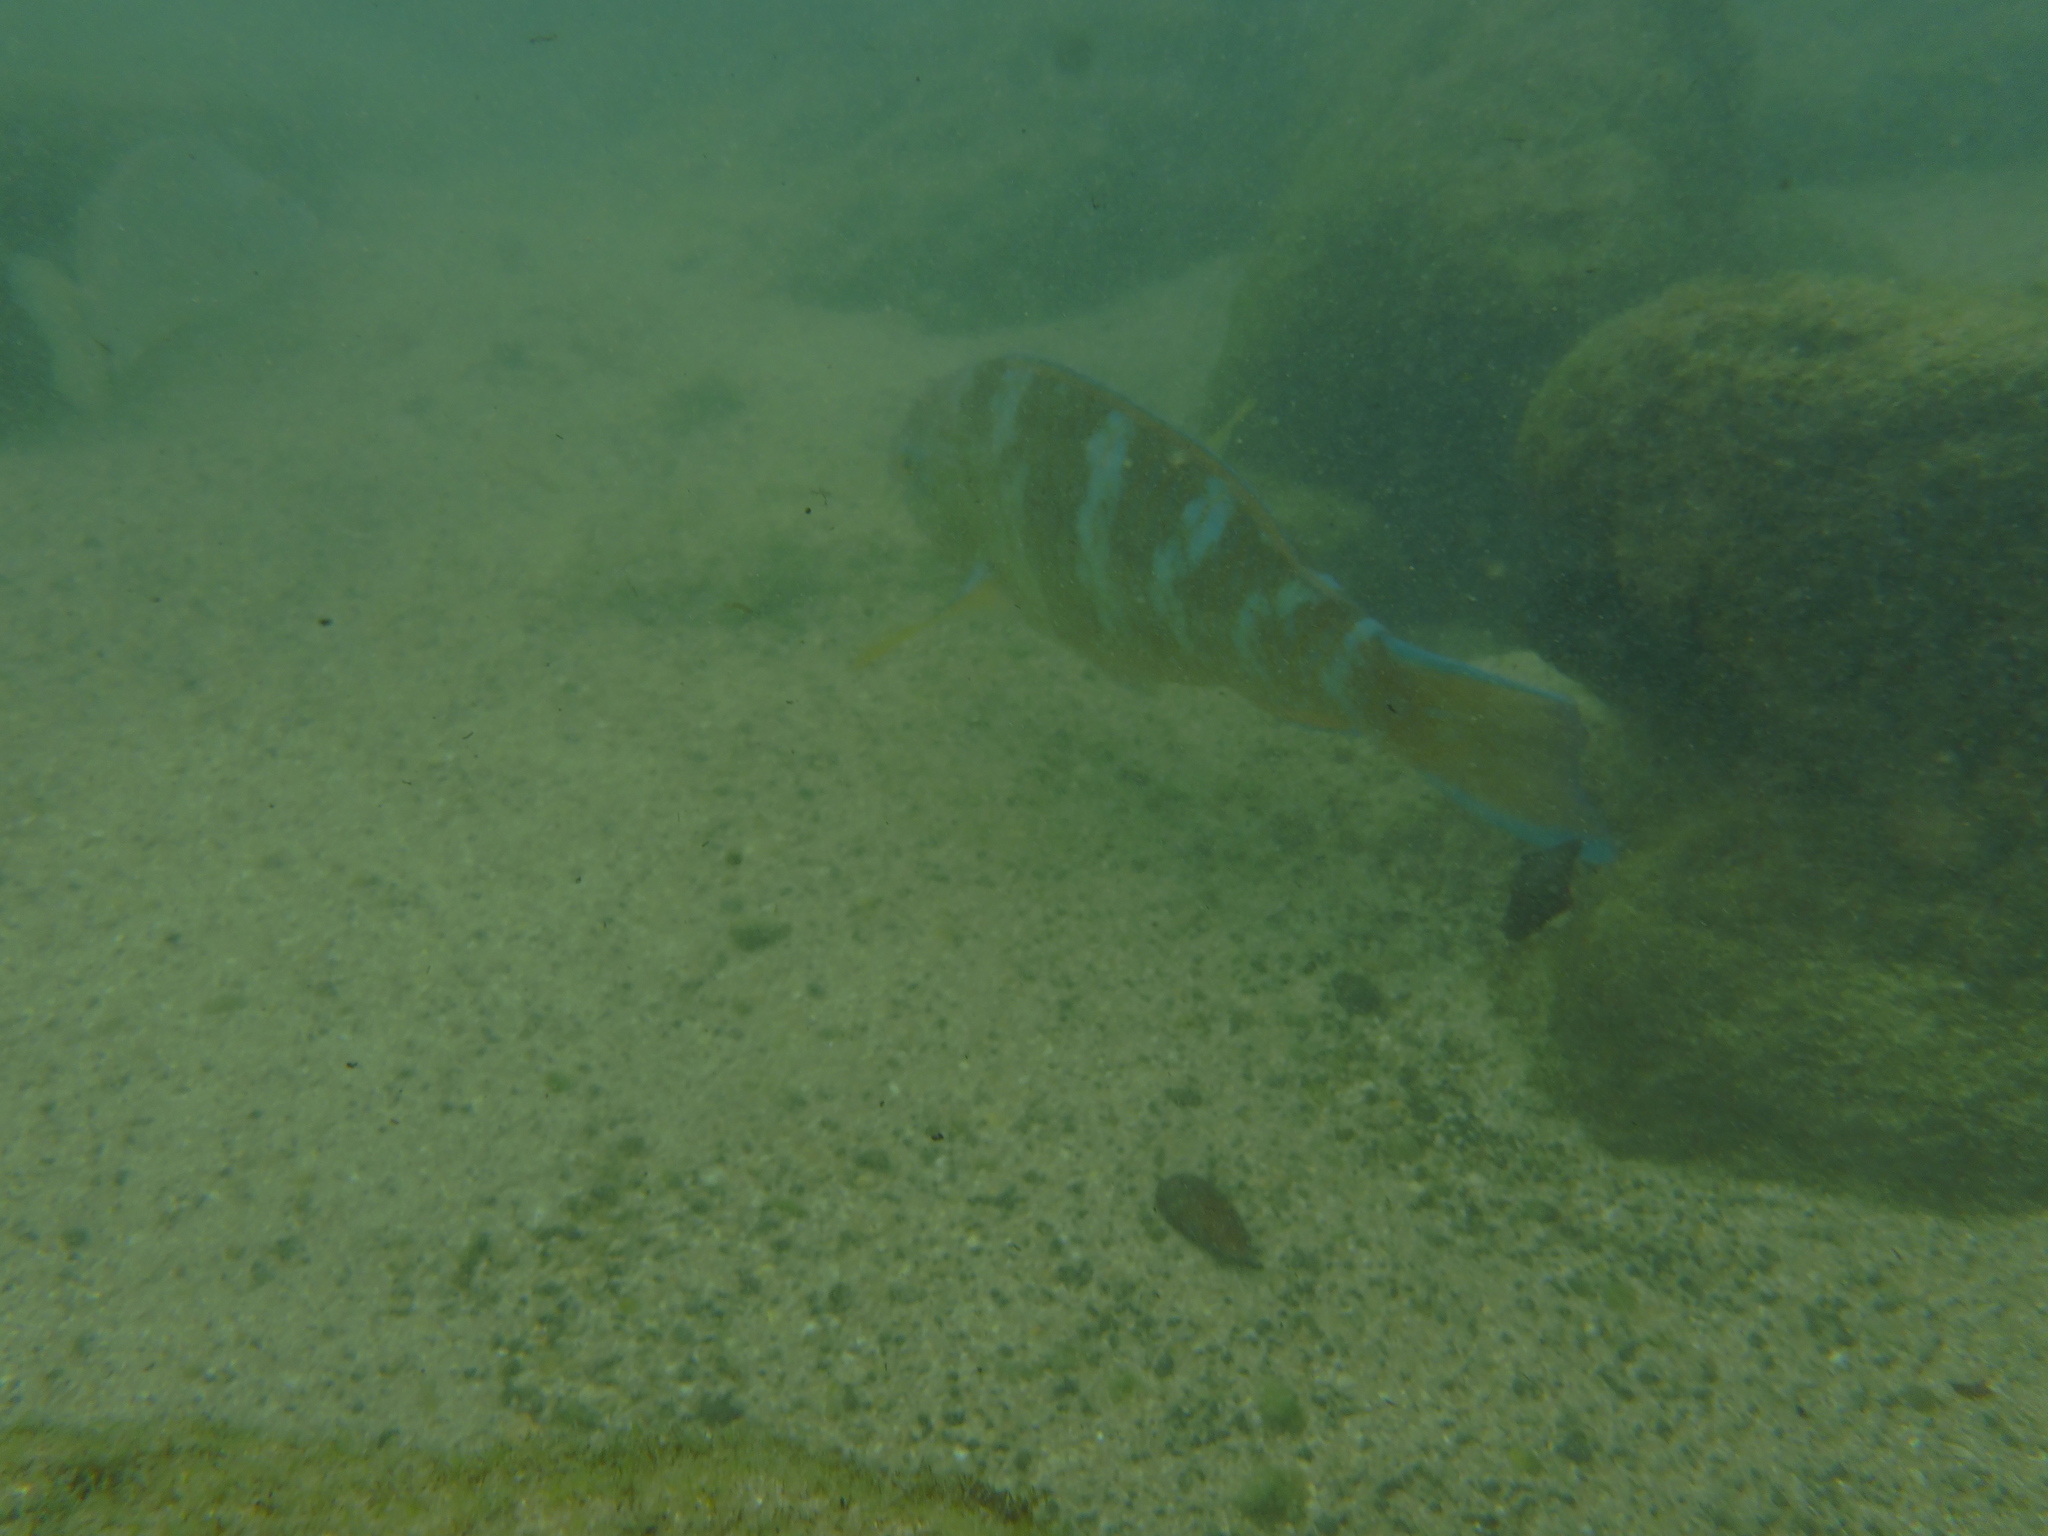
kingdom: Animalia
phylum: Chordata
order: Perciformes
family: Scaridae
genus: Scarus
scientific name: Scarus ghobban
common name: Blue-barred parrotfish
